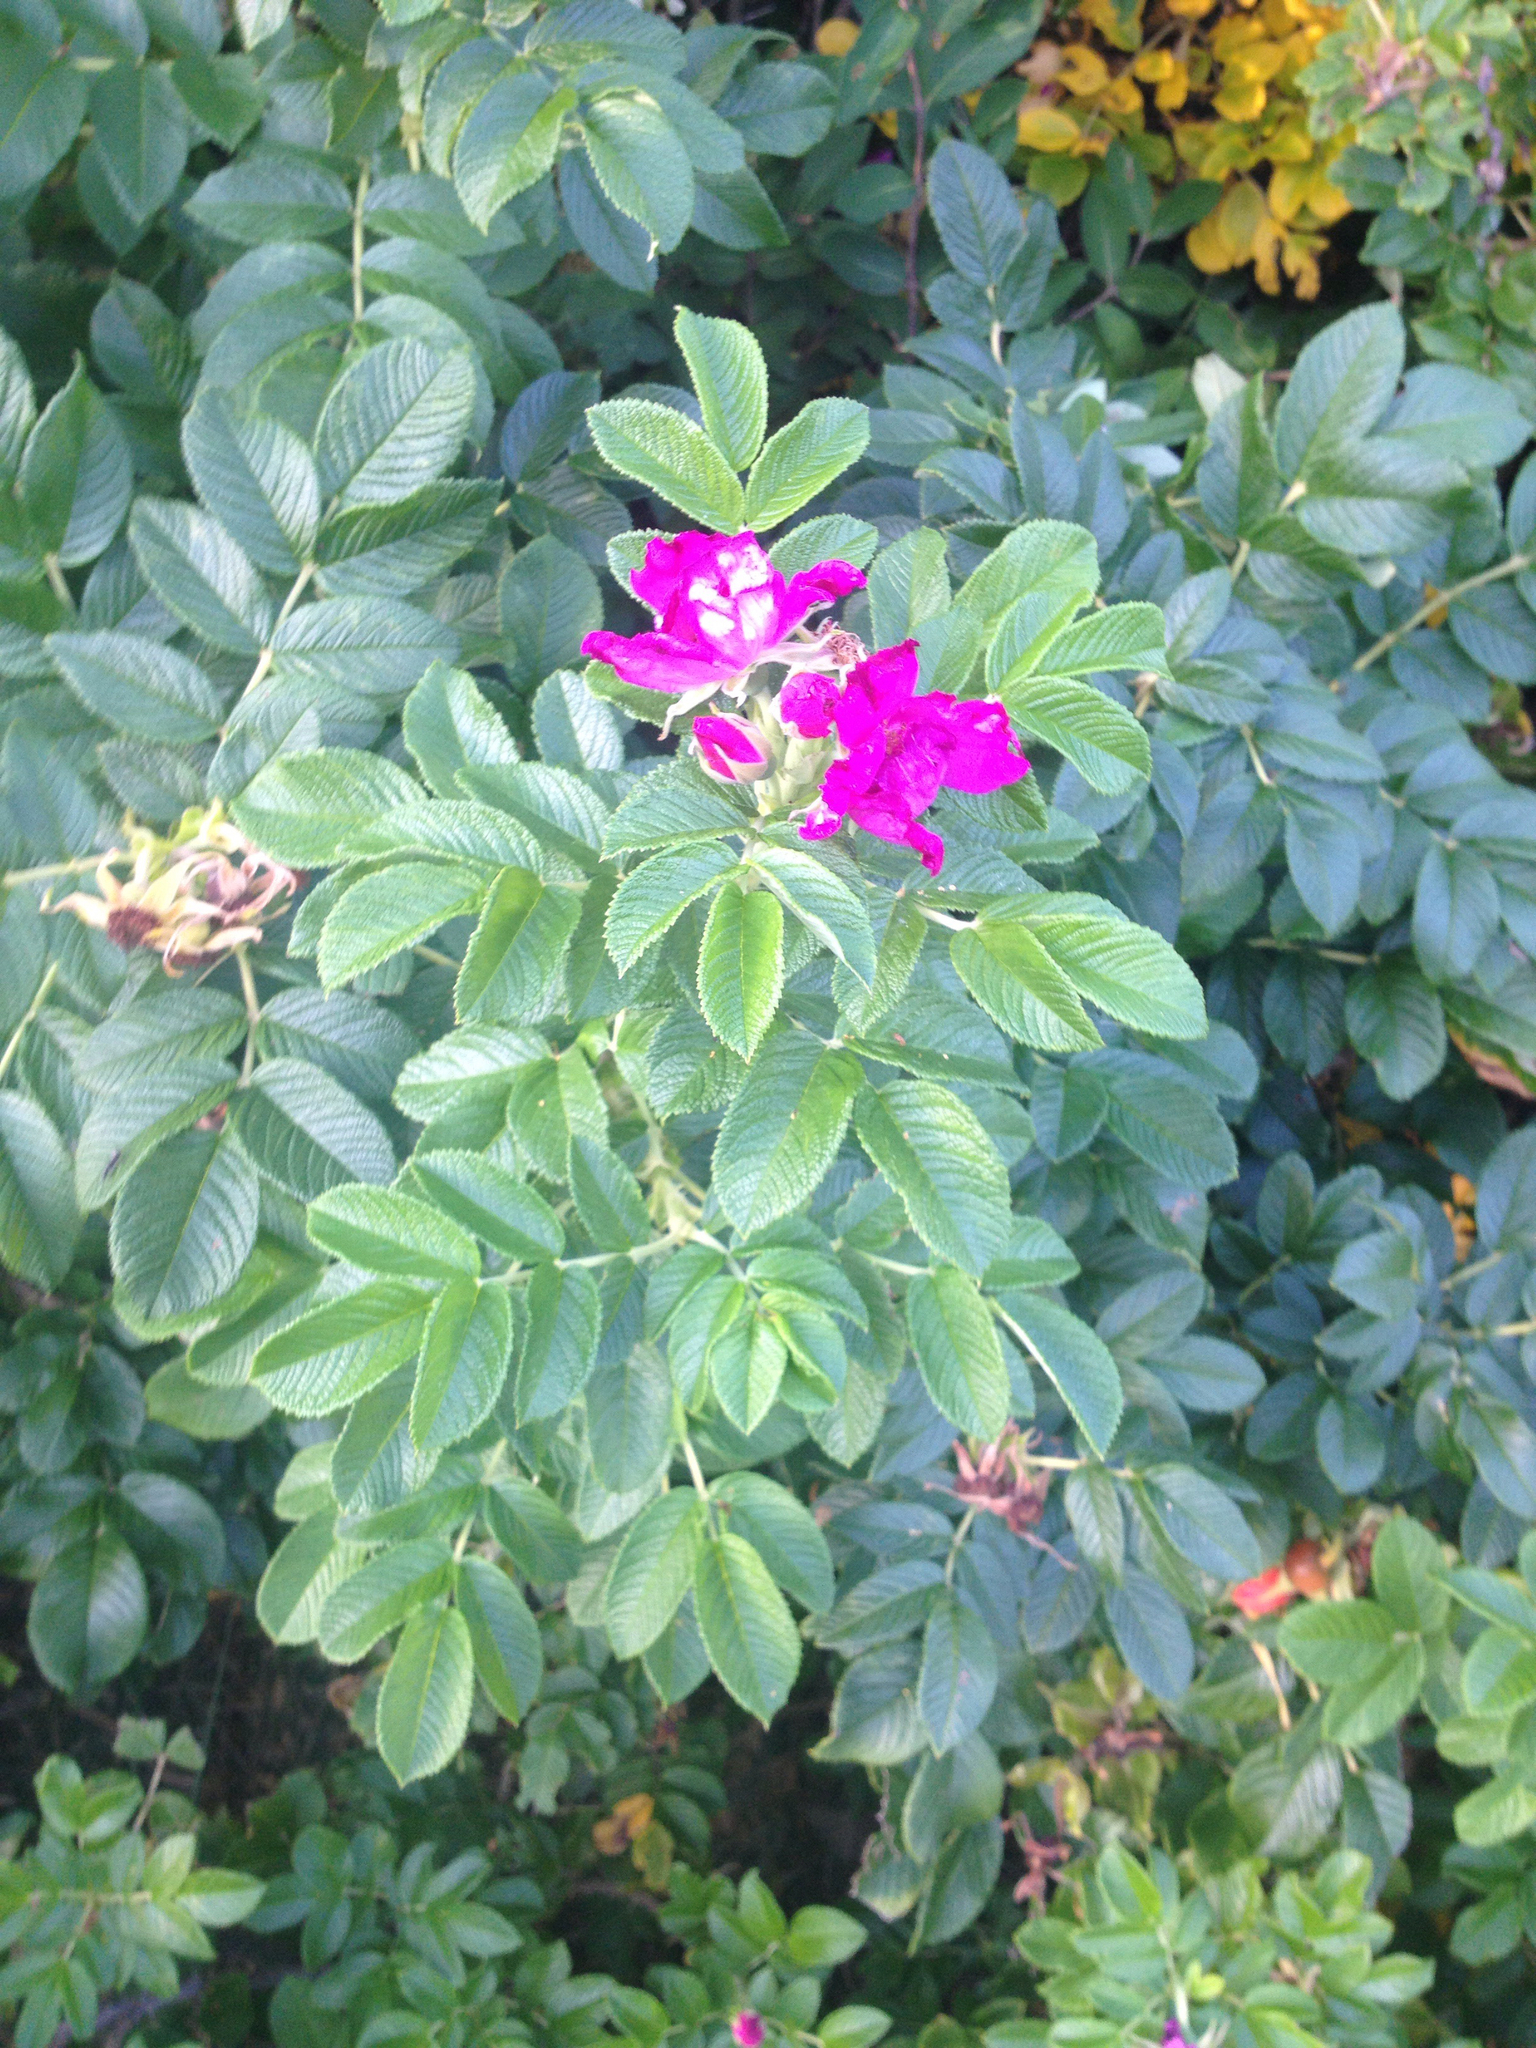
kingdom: Plantae
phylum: Tracheophyta
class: Magnoliopsida
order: Rosales
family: Rosaceae
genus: Rosa
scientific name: Rosa rugosa
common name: Japanese rose
